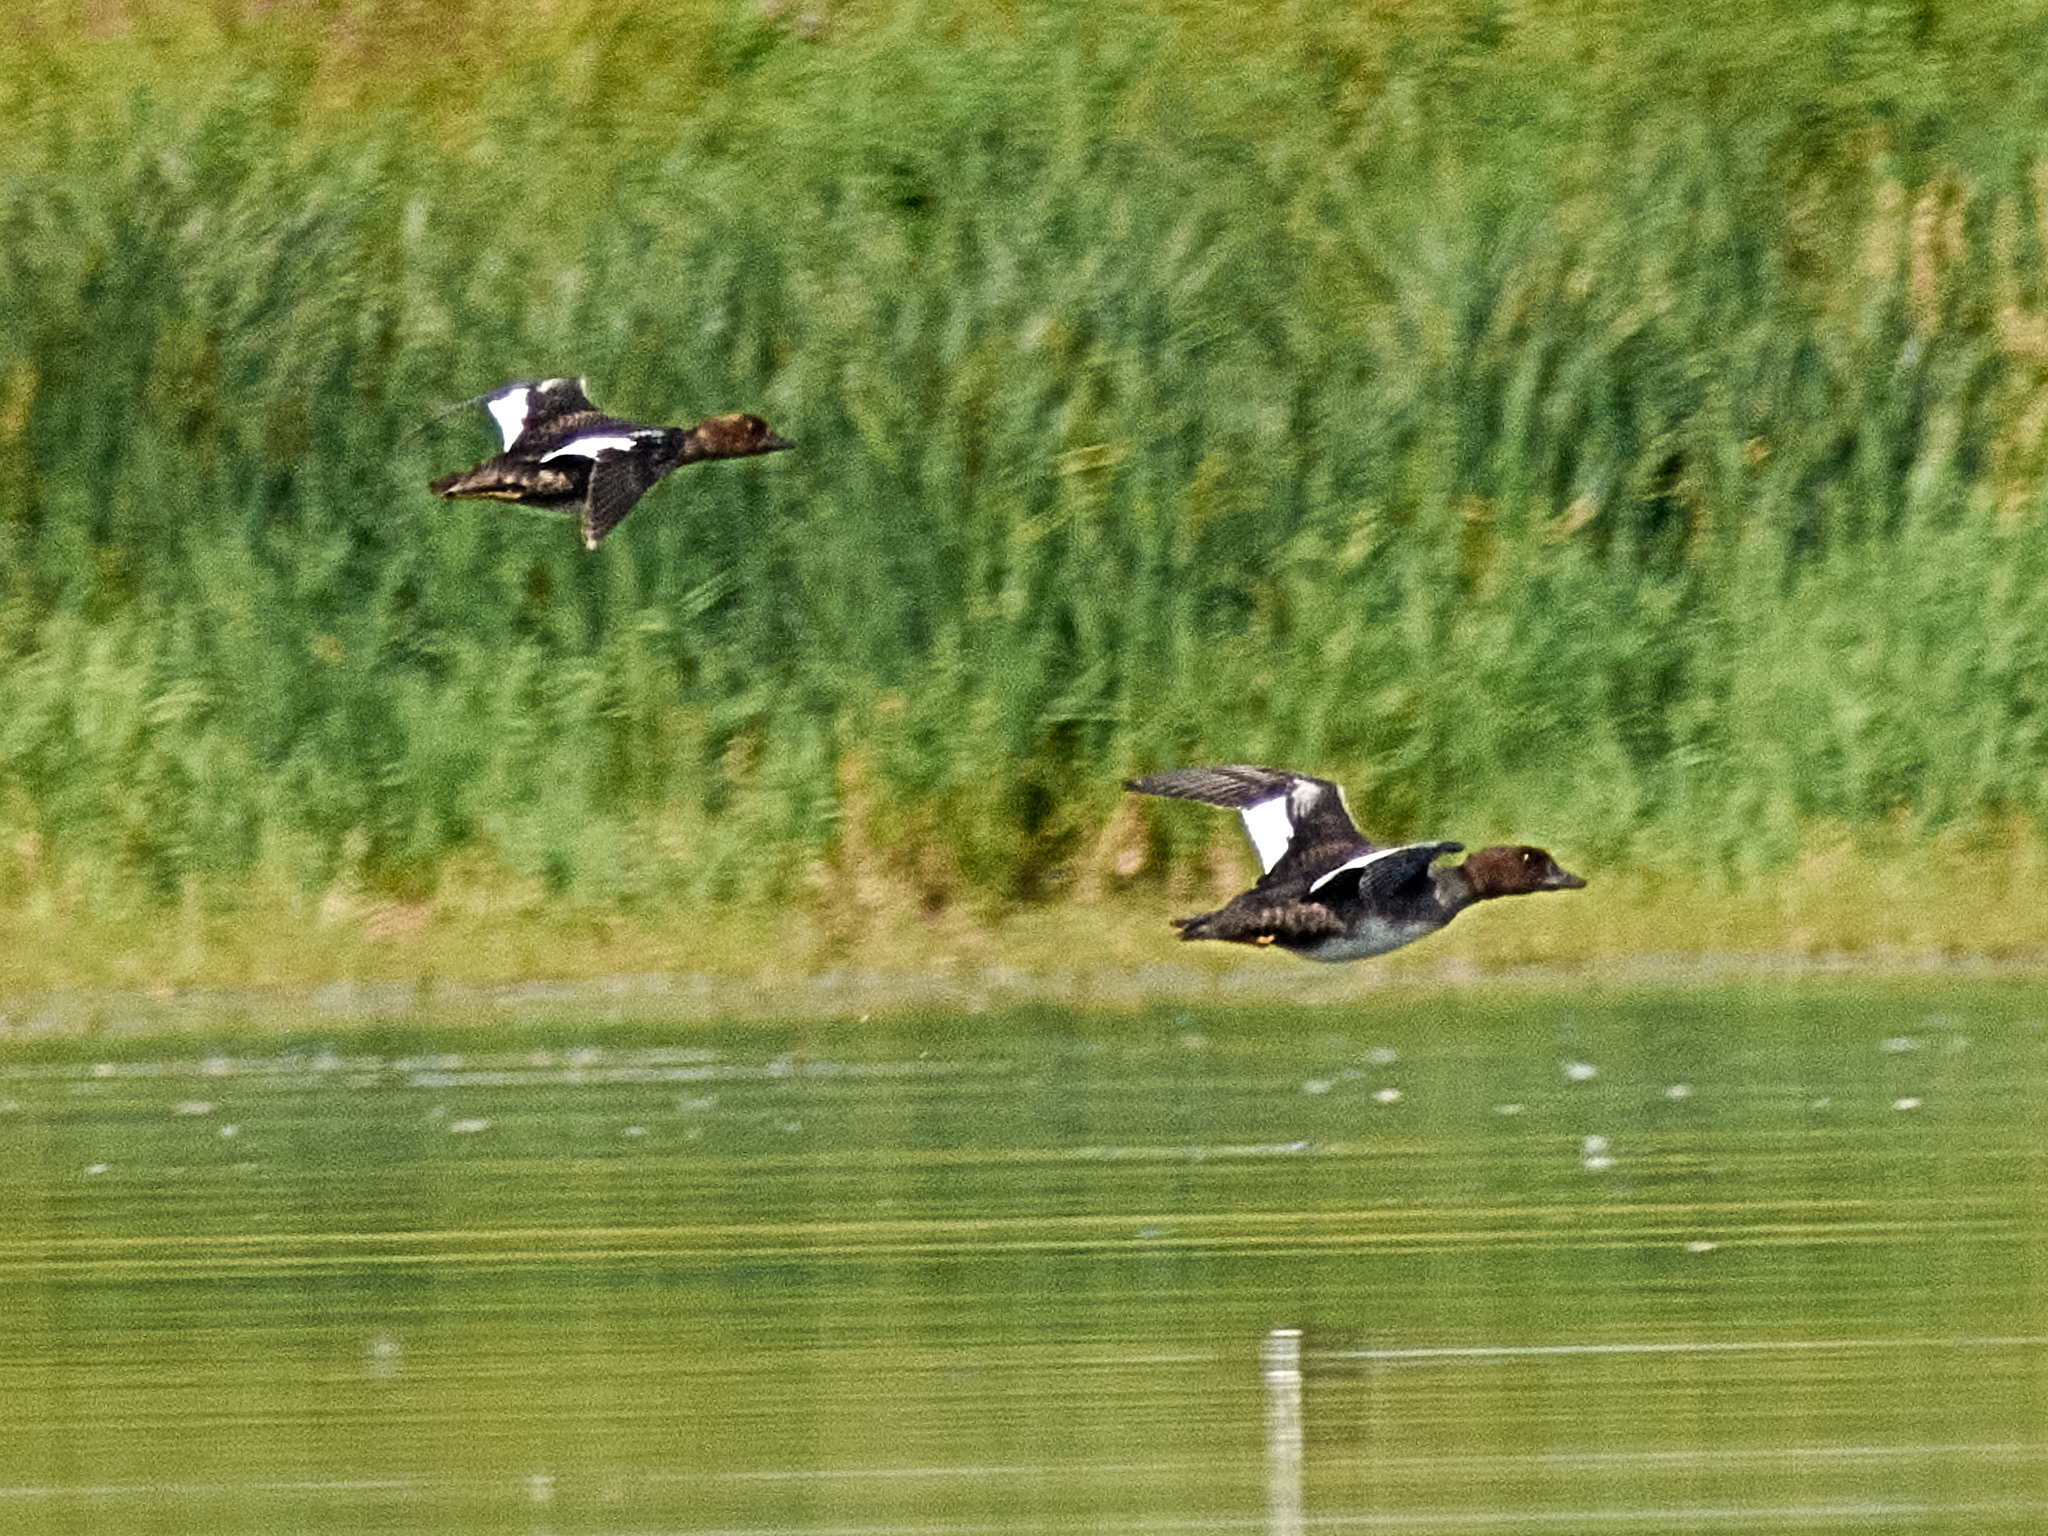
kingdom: Animalia
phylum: Chordata
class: Aves
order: Anseriformes
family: Anatidae
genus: Bucephala
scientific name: Bucephala clangula
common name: Common goldeneye
